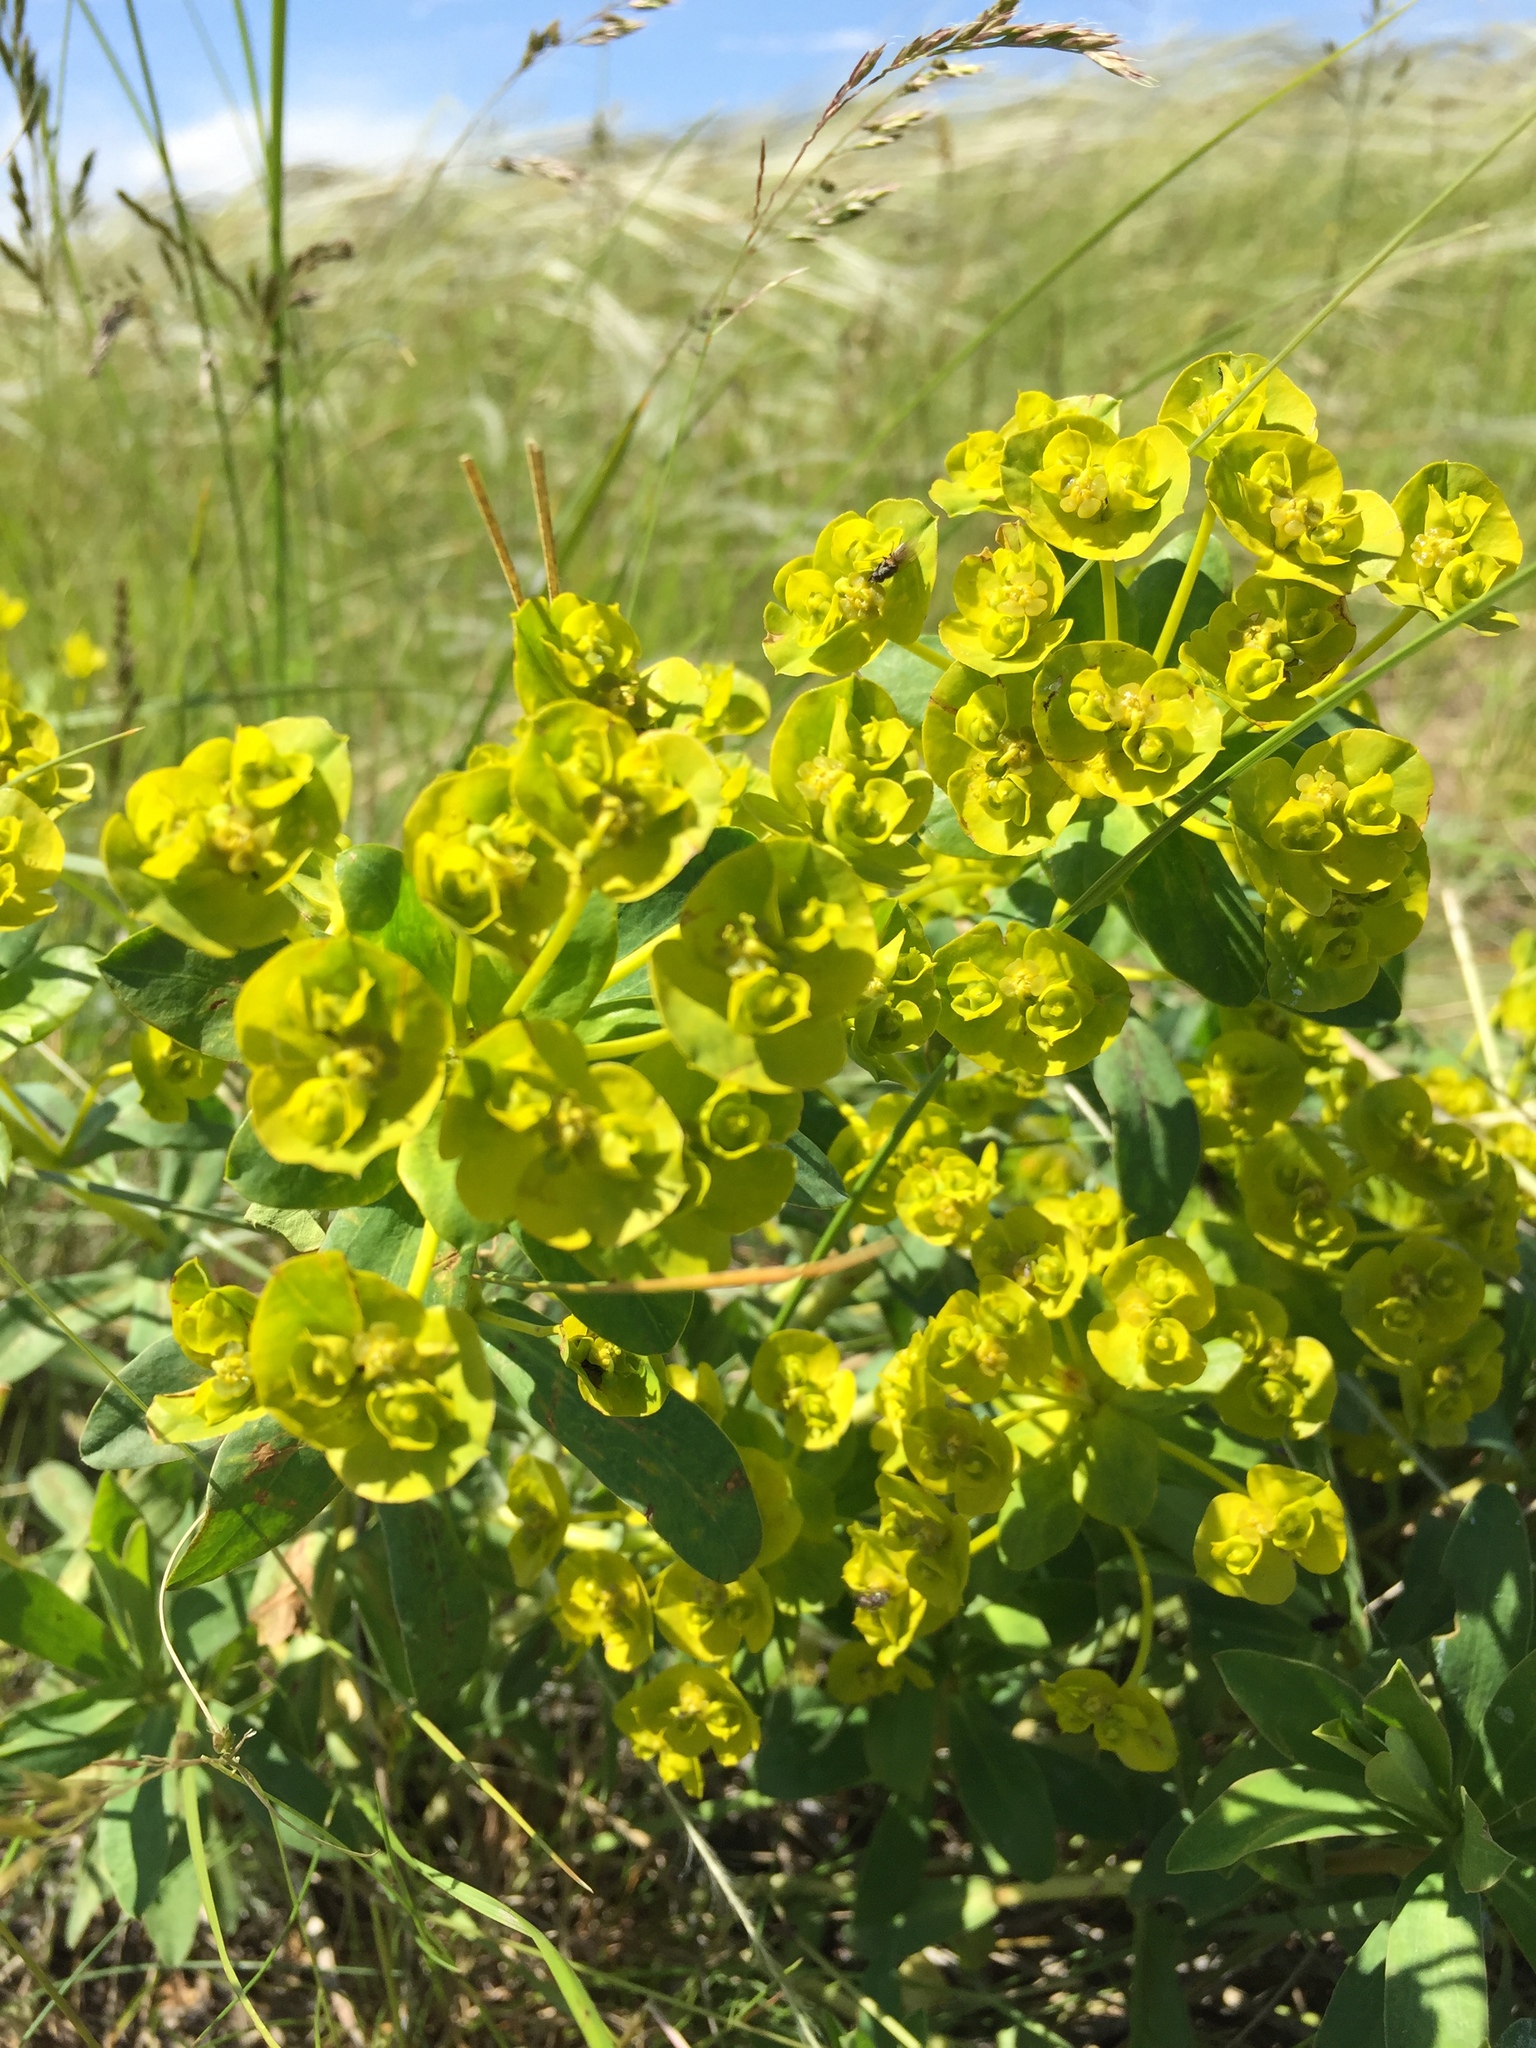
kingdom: Plantae
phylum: Tracheophyta
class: Magnoliopsida
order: Malpighiales
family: Euphorbiaceae
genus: Euphorbia
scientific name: Euphorbia stepposa
